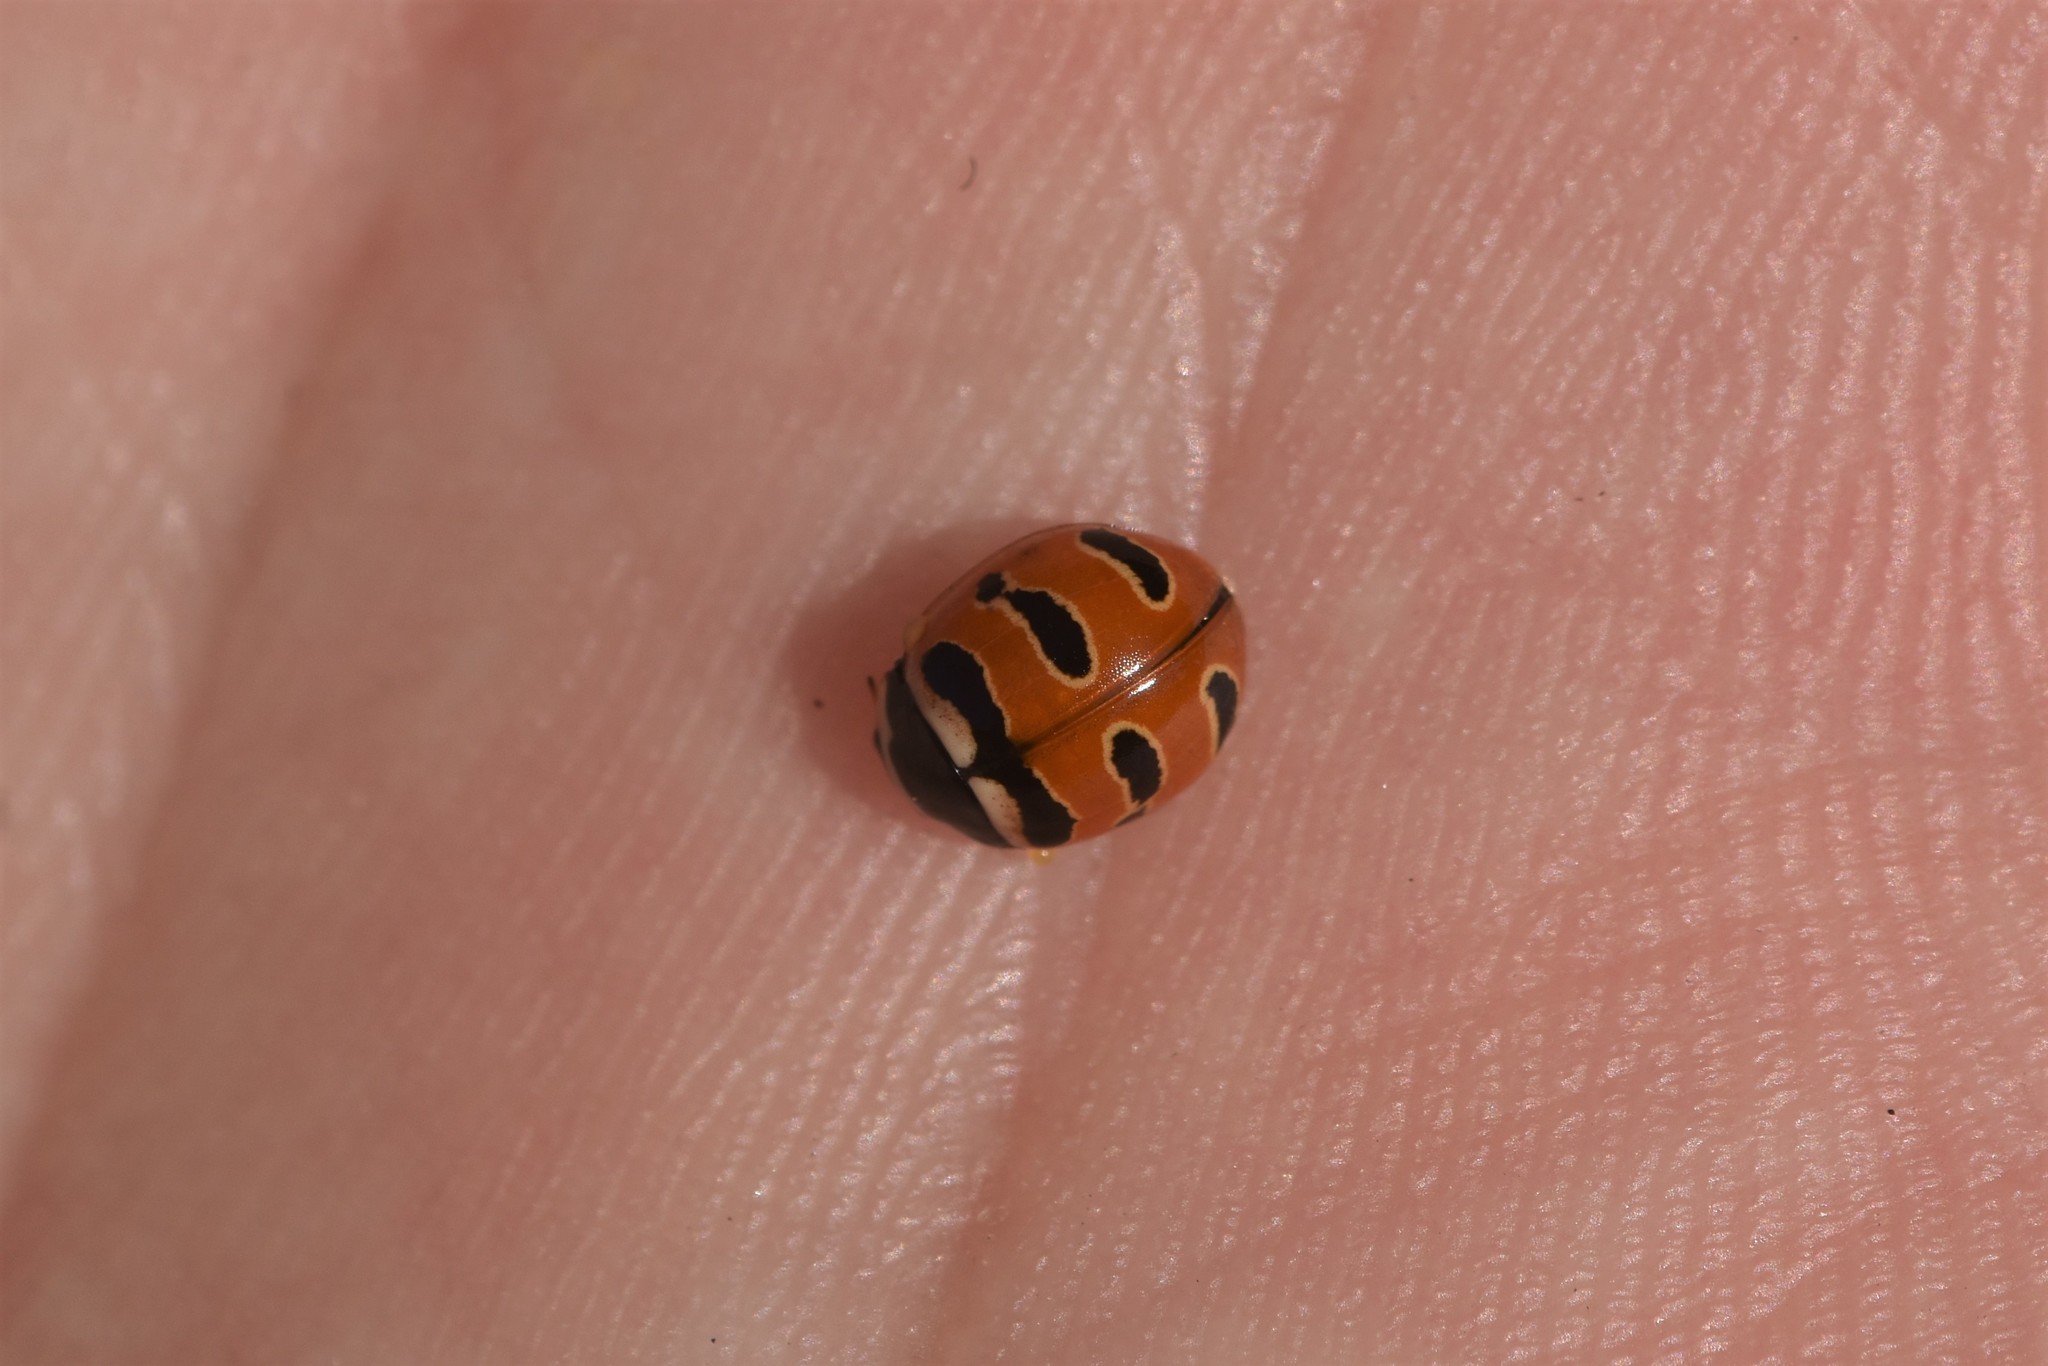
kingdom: Animalia
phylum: Arthropoda
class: Insecta
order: Coleoptera
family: Coccinellidae
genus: Coccinella
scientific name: Coccinella trifasciata
